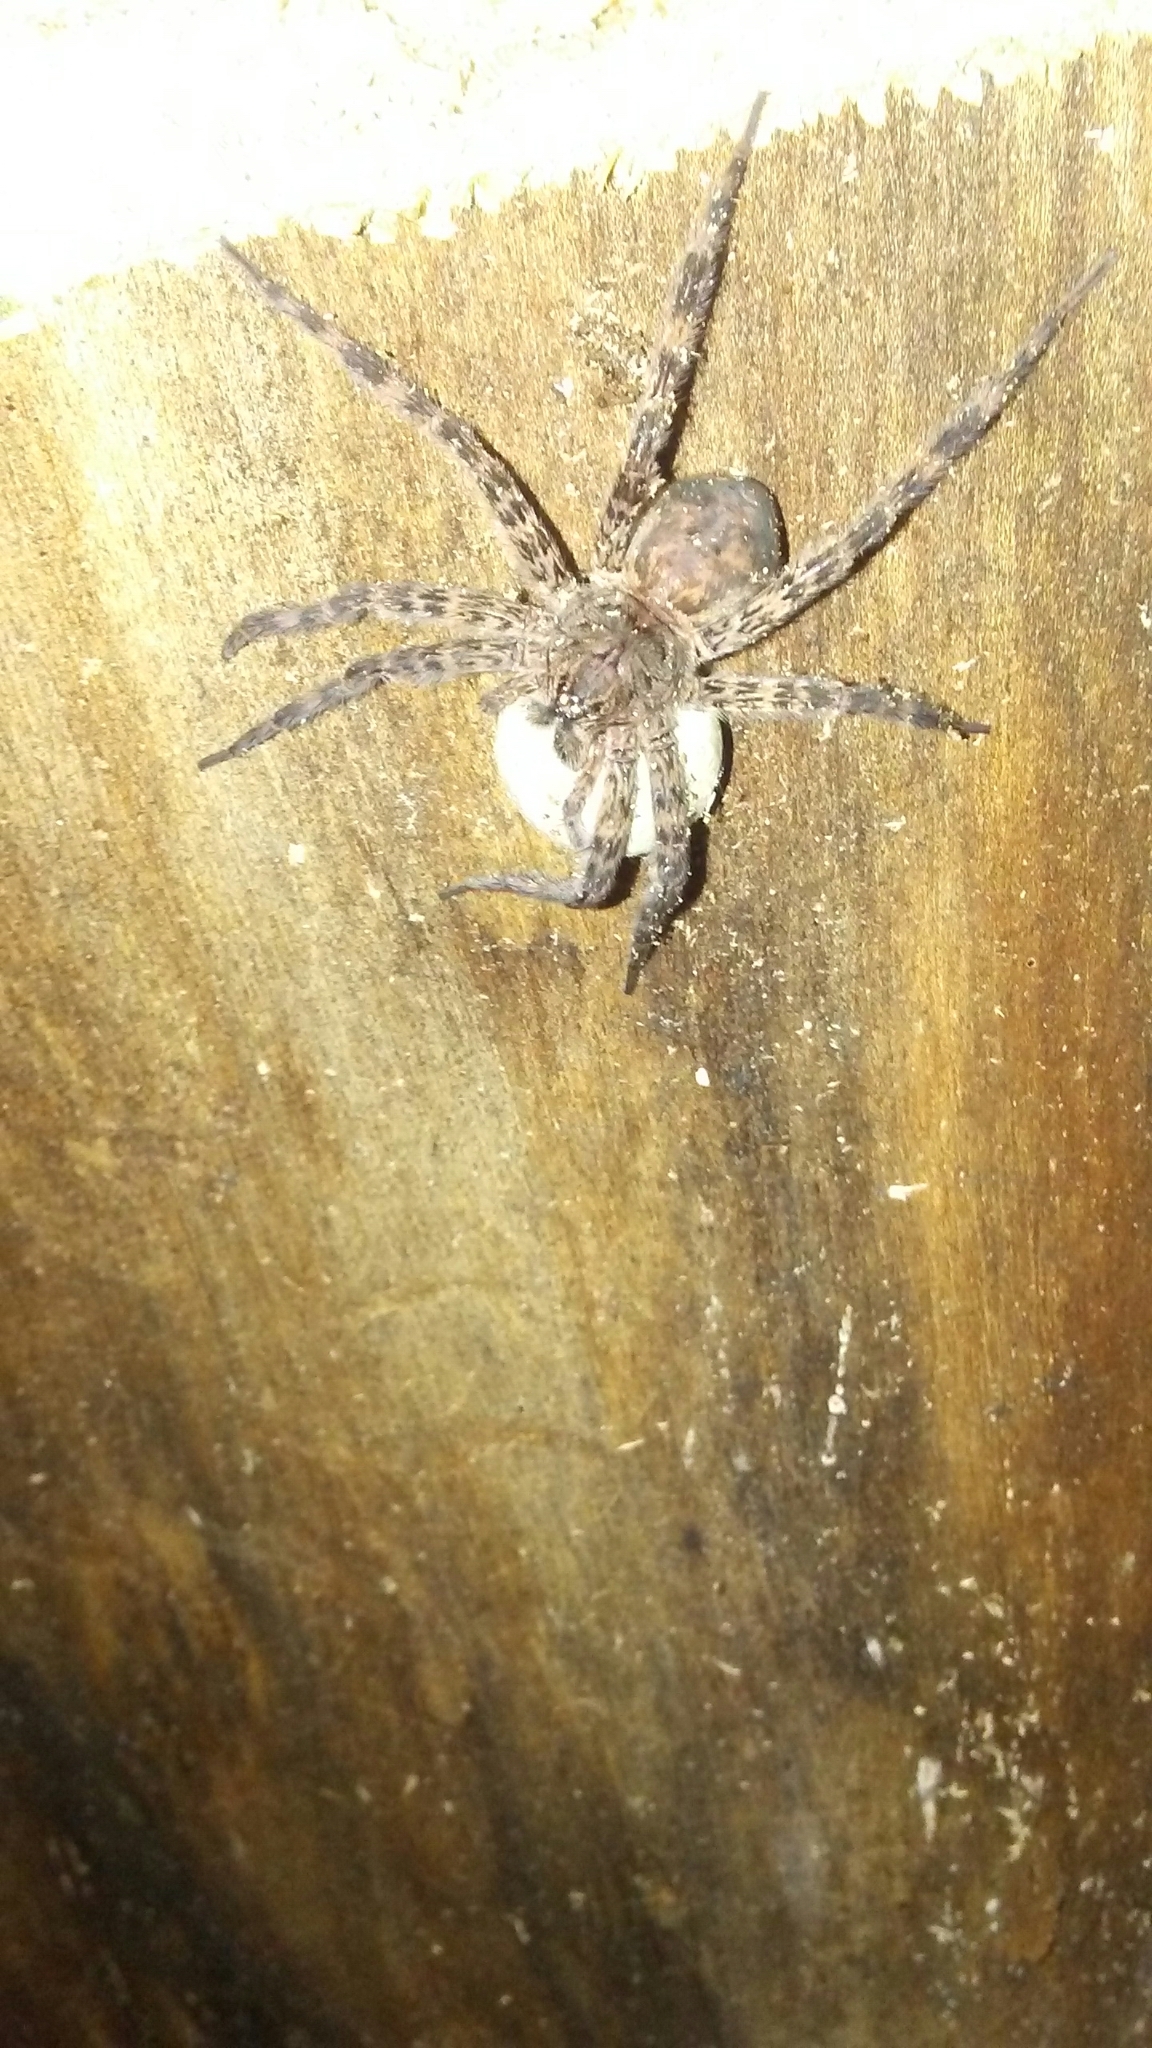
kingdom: Animalia
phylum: Arthropoda
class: Arachnida
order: Araneae
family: Pisauridae
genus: Dolomedes
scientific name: Dolomedes tenebrosus
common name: Dark fishing spider
